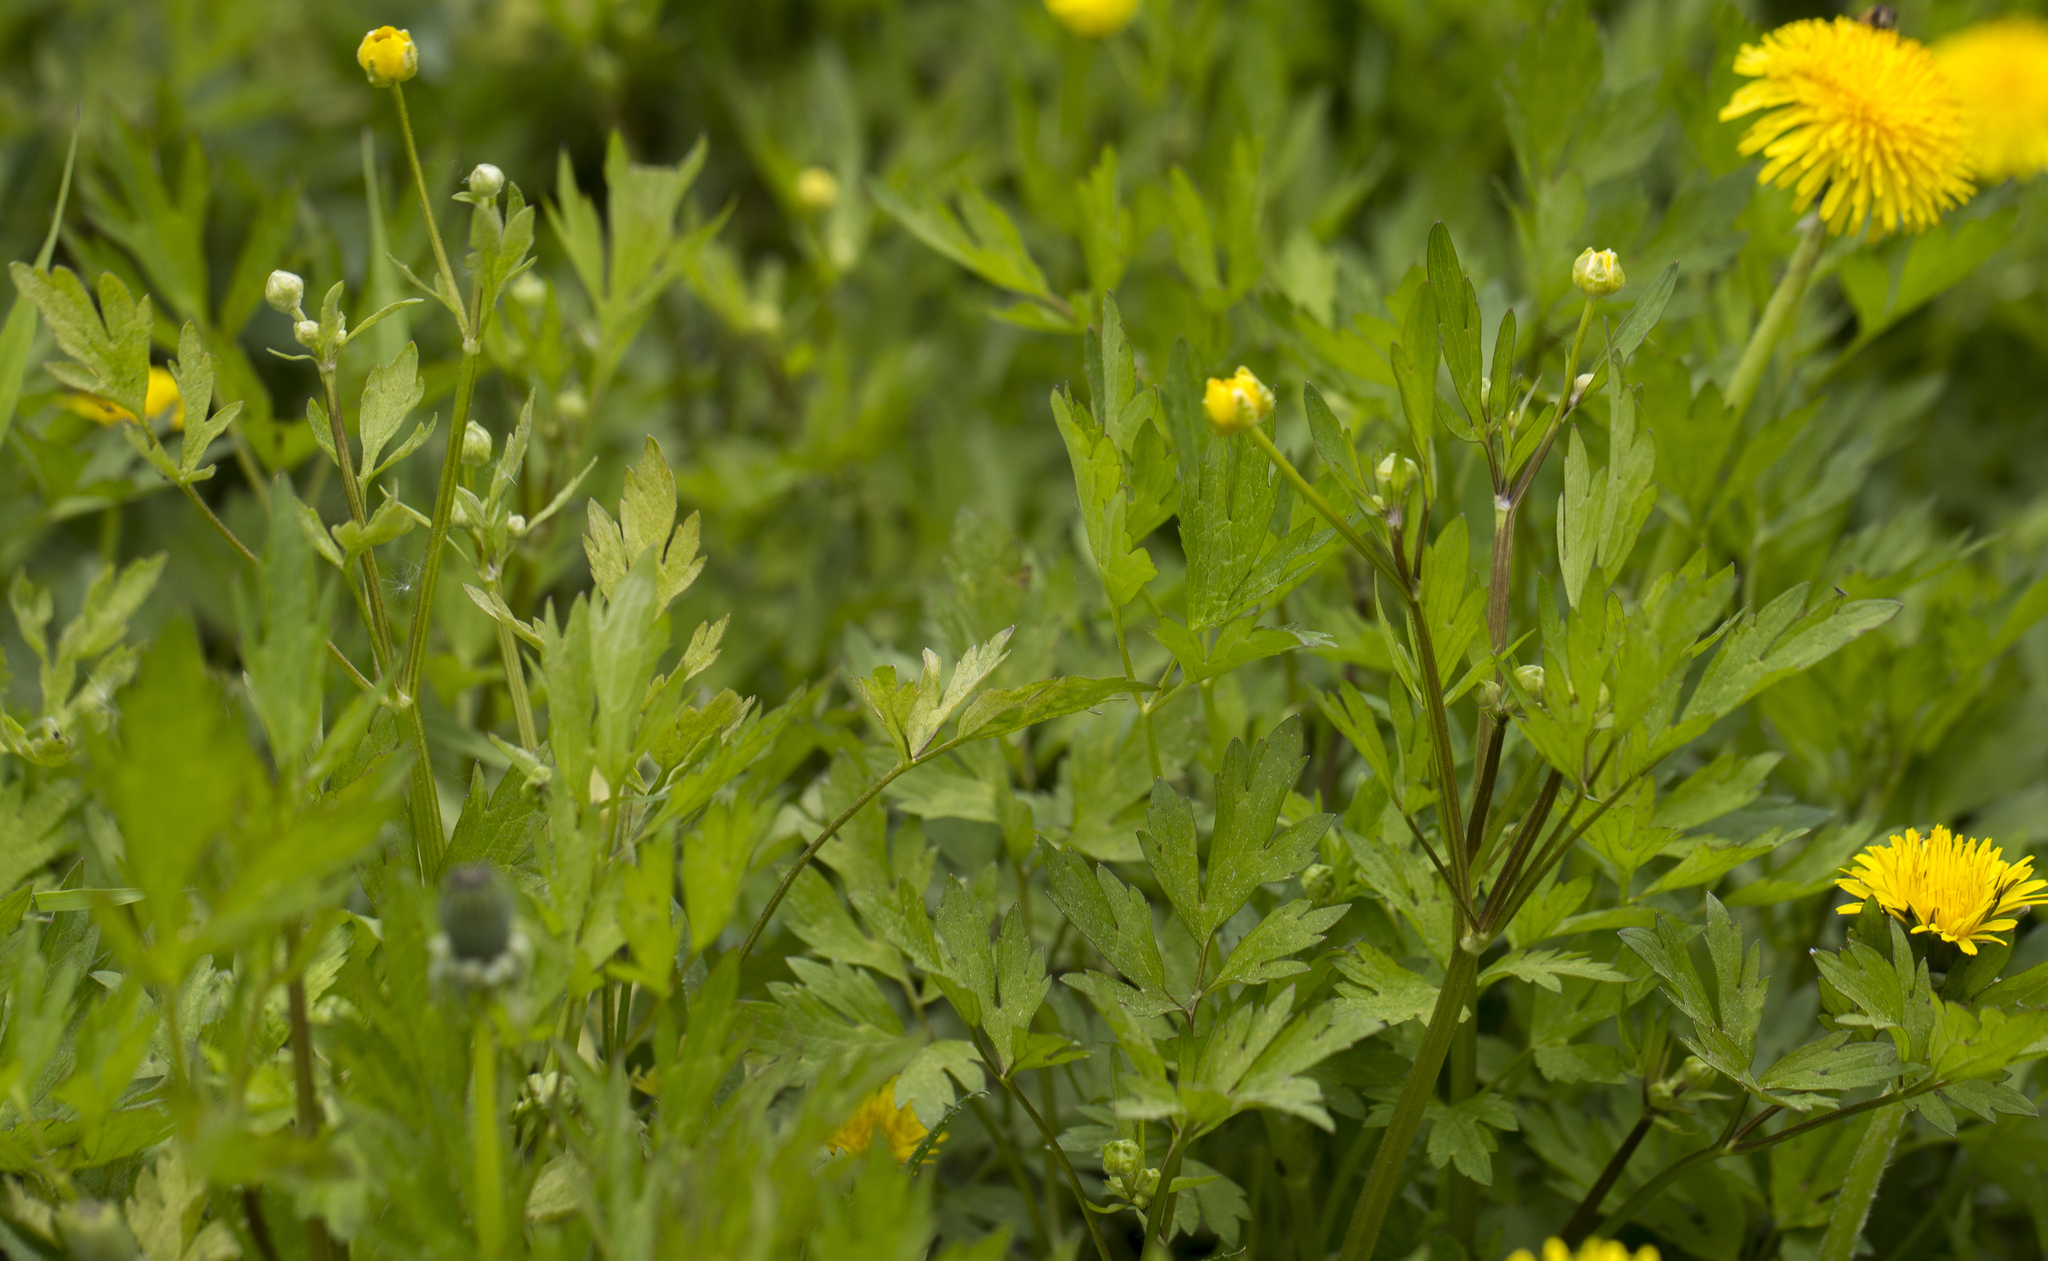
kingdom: Plantae
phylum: Tracheophyta
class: Magnoliopsida
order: Ranunculales
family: Ranunculaceae
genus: Ranunculus
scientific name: Ranunculus repens
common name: Creeping buttercup
